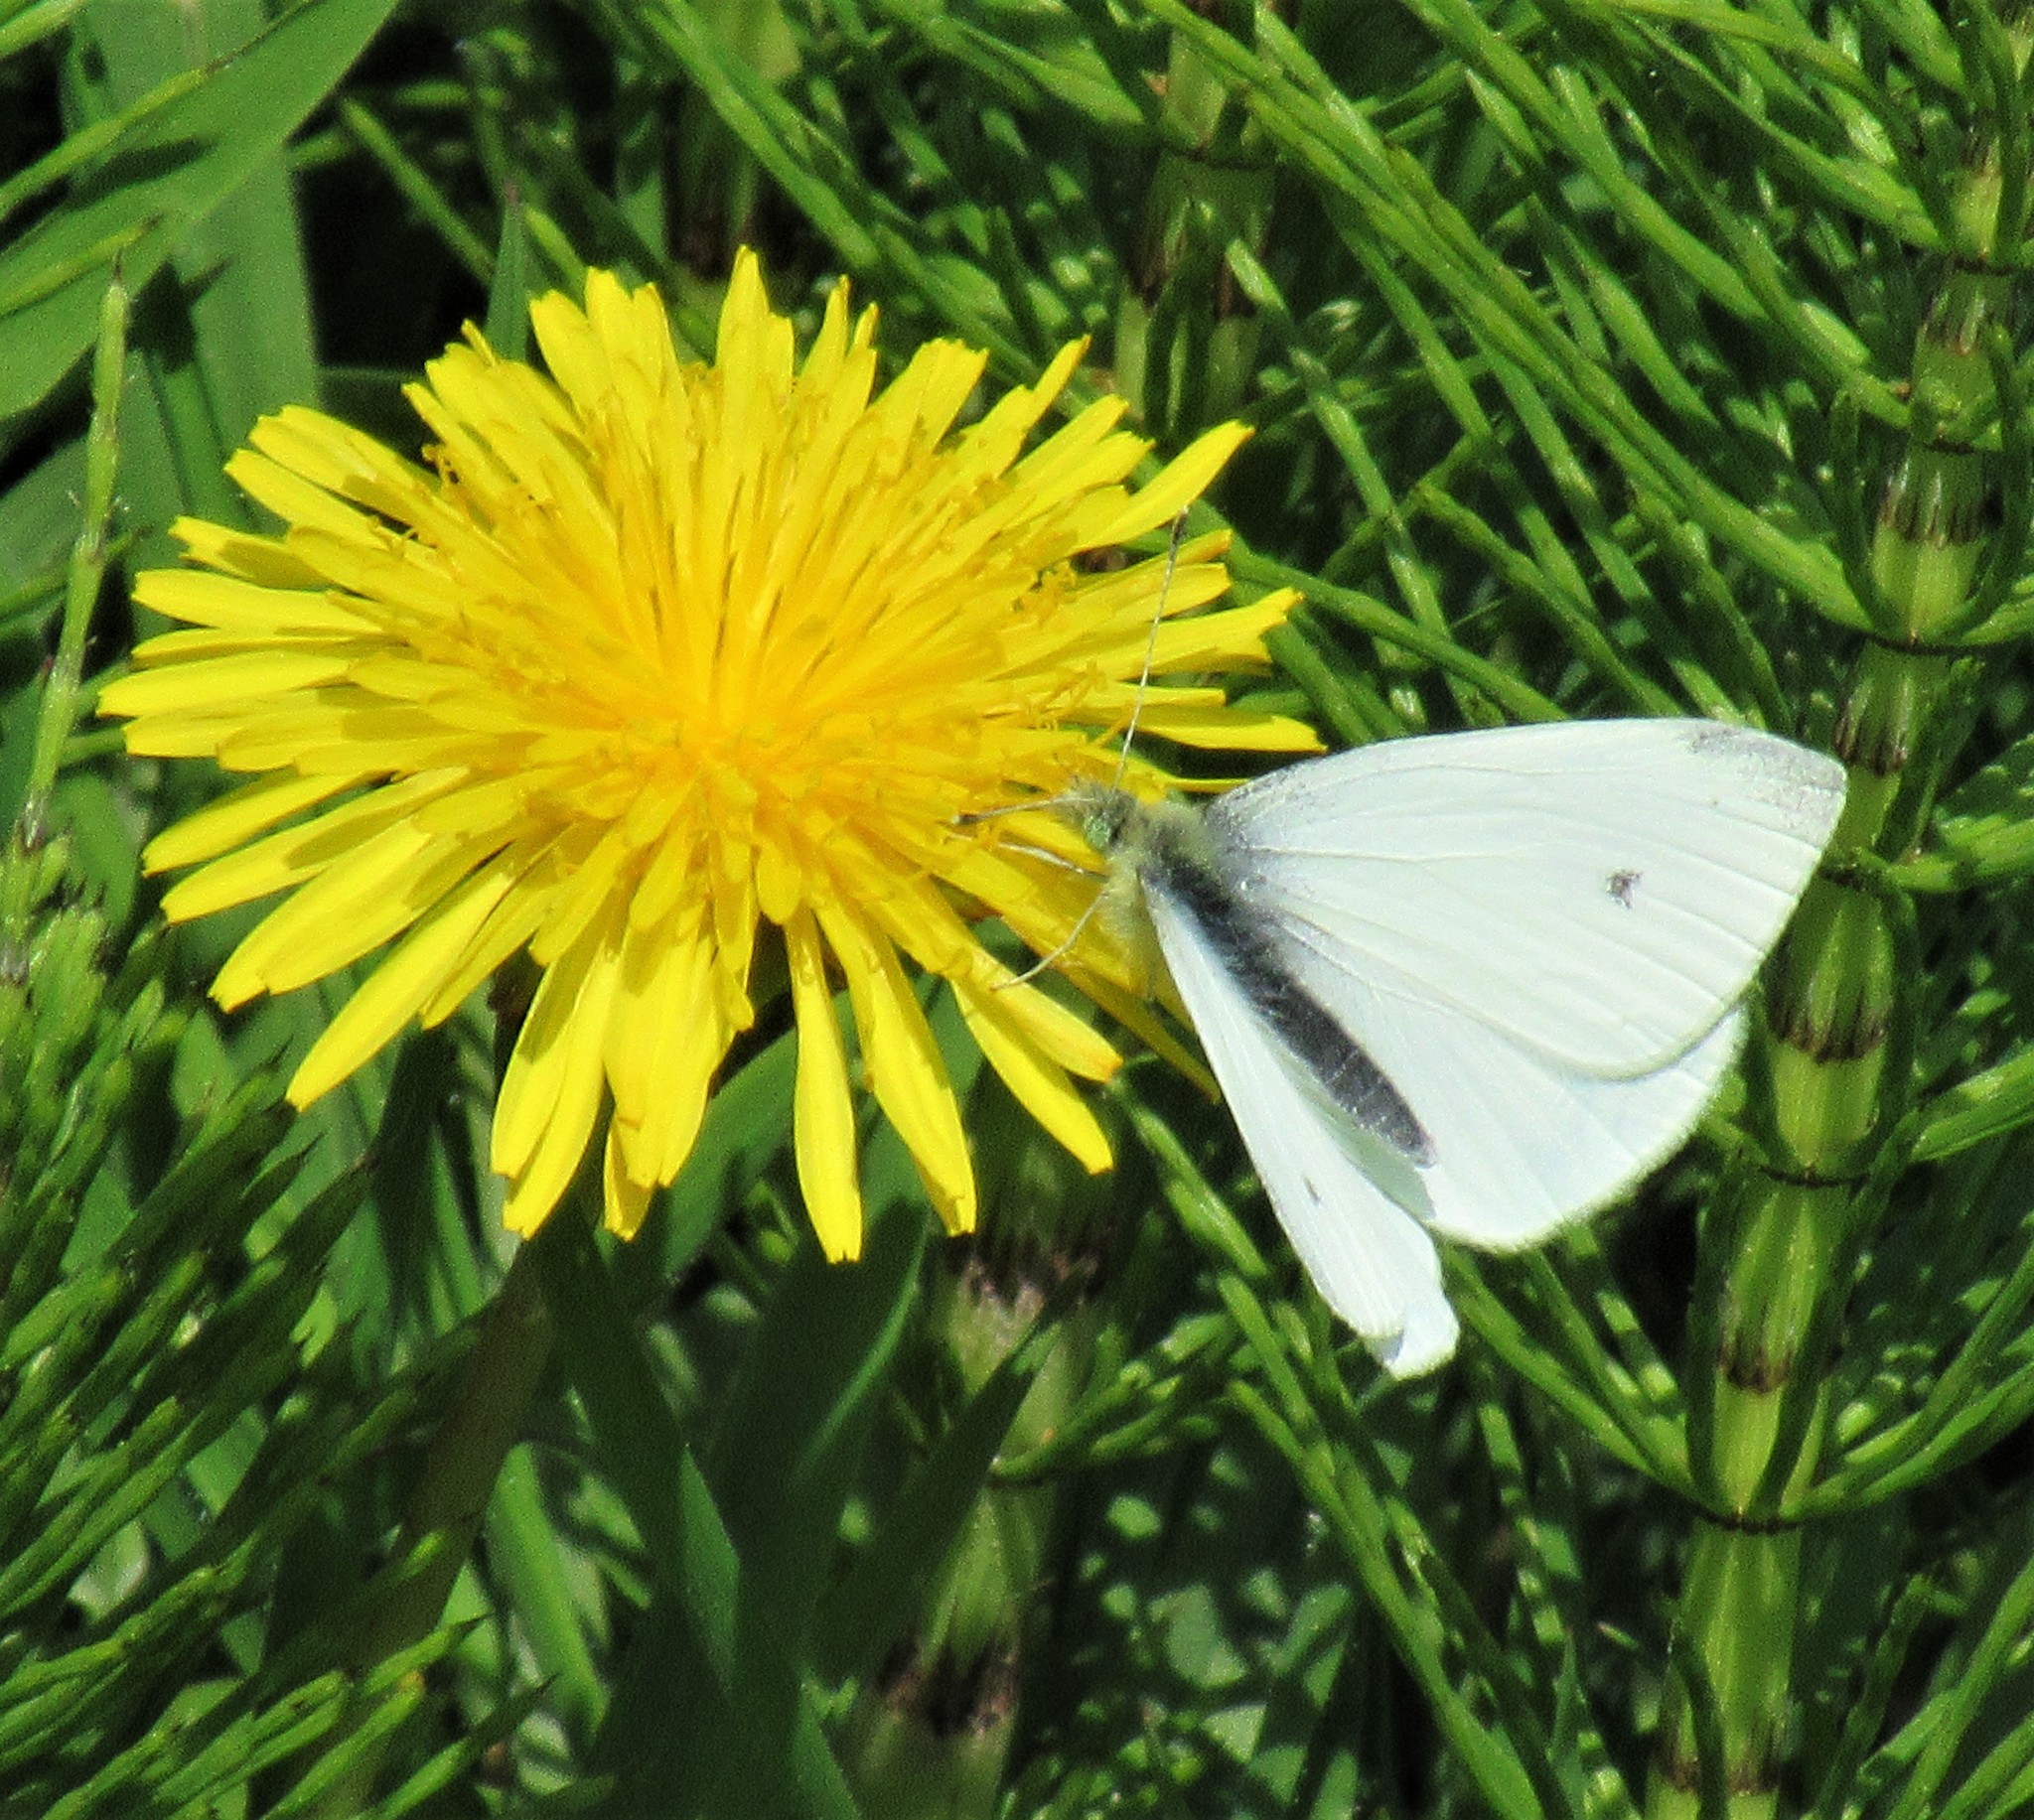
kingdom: Animalia
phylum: Arthropoda
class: Insecta
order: Lepidoptera
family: Pieridae
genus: Pieris
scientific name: Pieris rapae
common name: Small white
